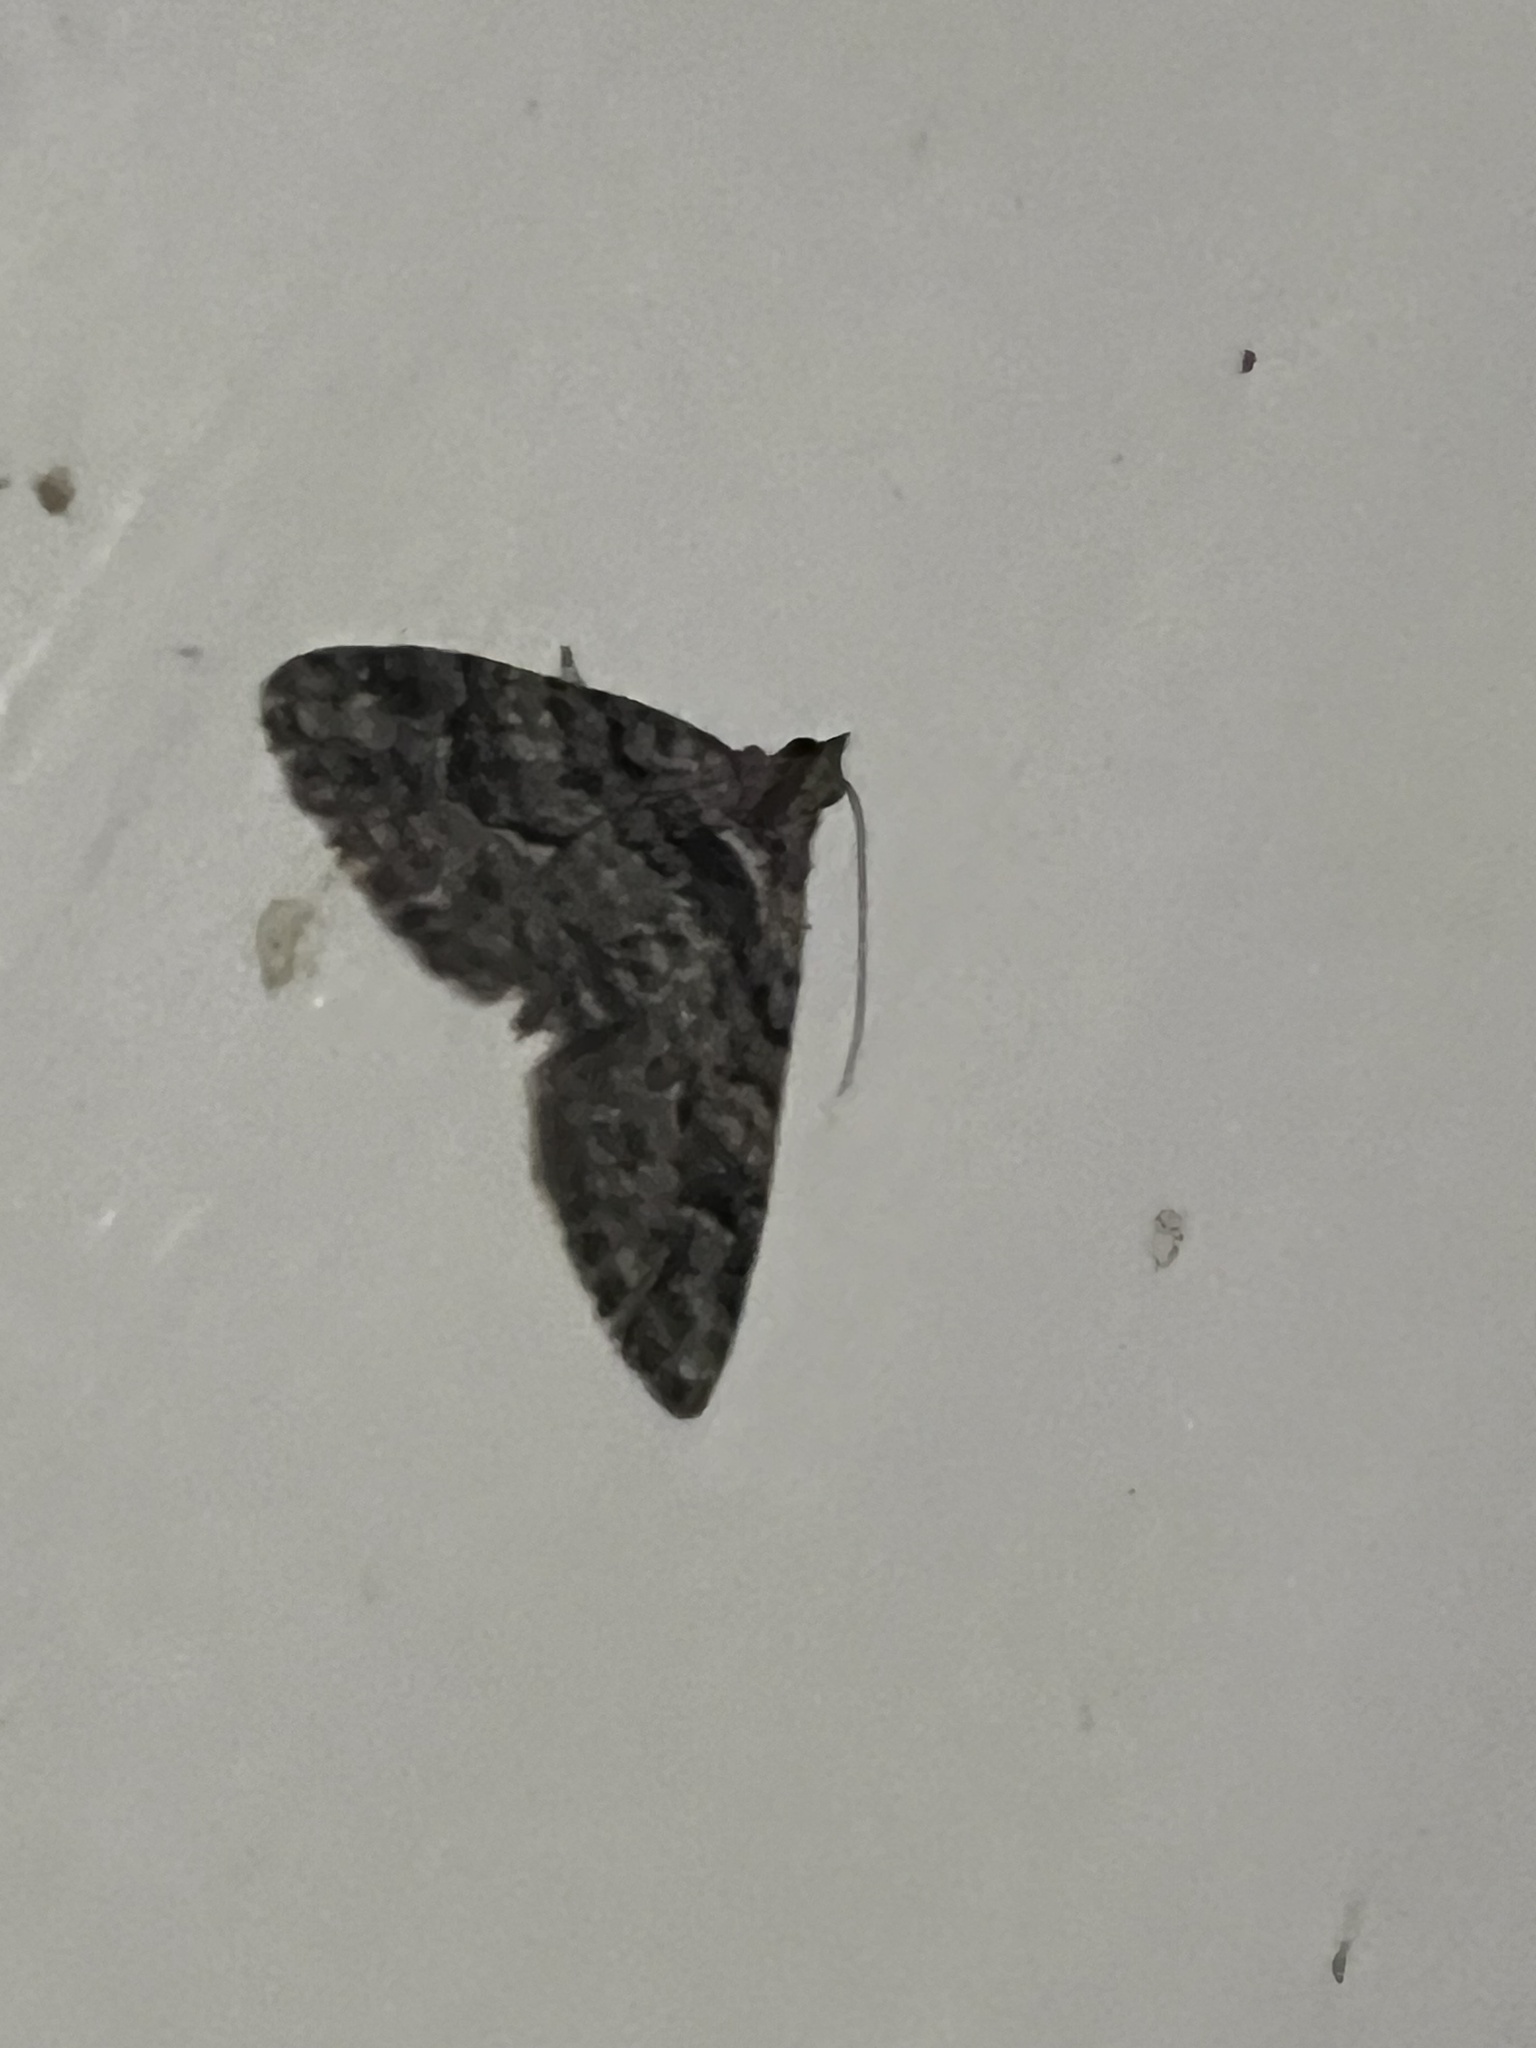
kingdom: Animalia
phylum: Arthropoda
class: Insecta
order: Lepidoptera
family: Geometridae
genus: Phrissogonus
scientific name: Phrissogonus laticostata
